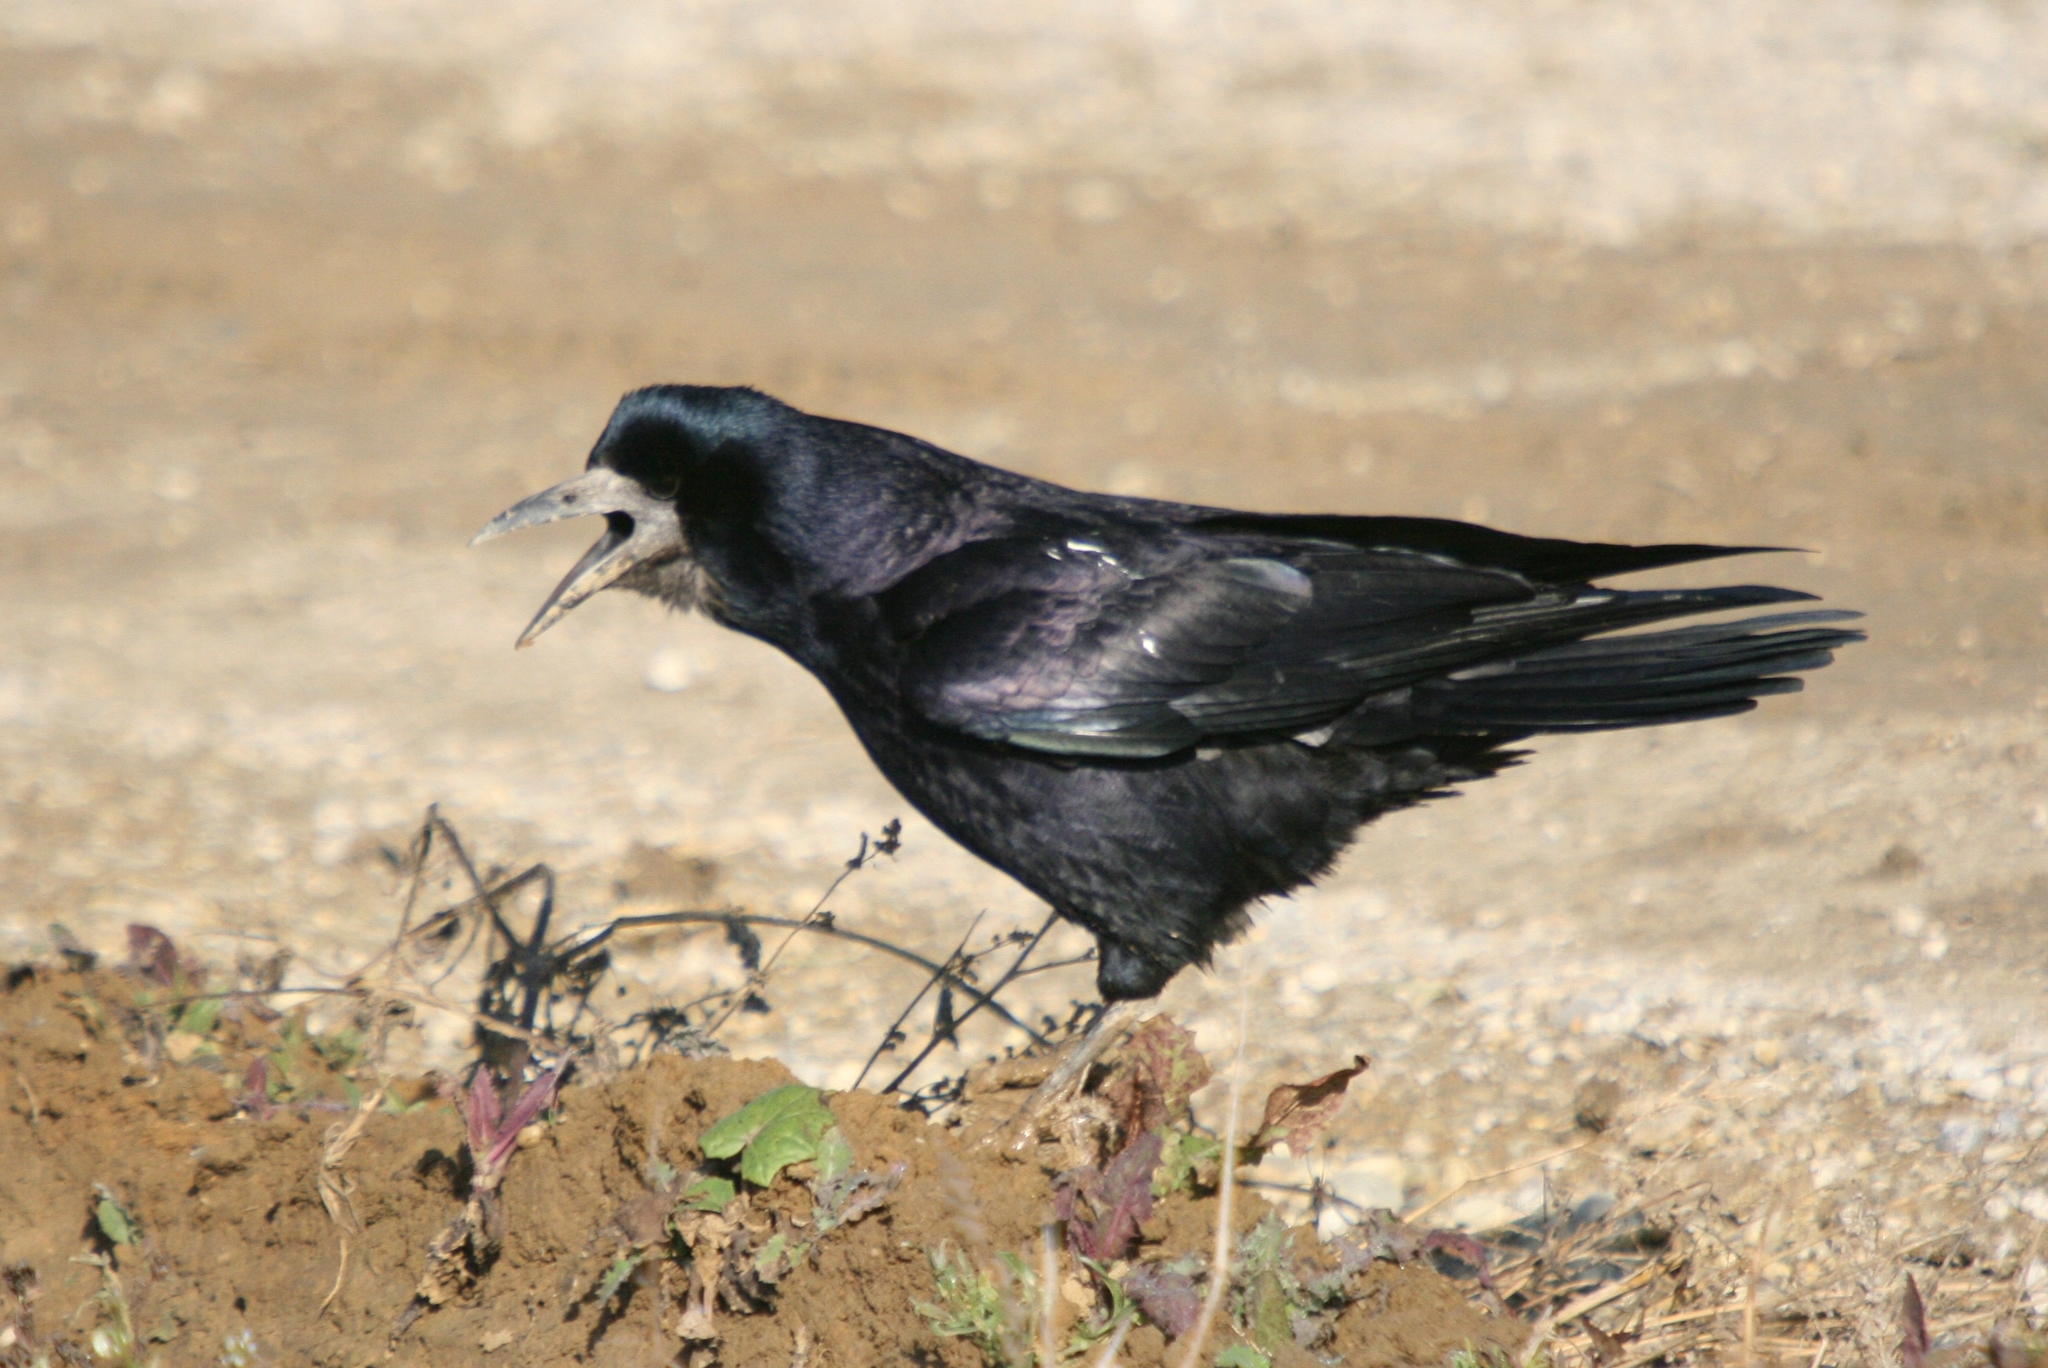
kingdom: Animalia
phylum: Chordata
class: Aves
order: Passeriformes
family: Corvidae
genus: Corvus
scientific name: Corvus frugilegus
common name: Rook
